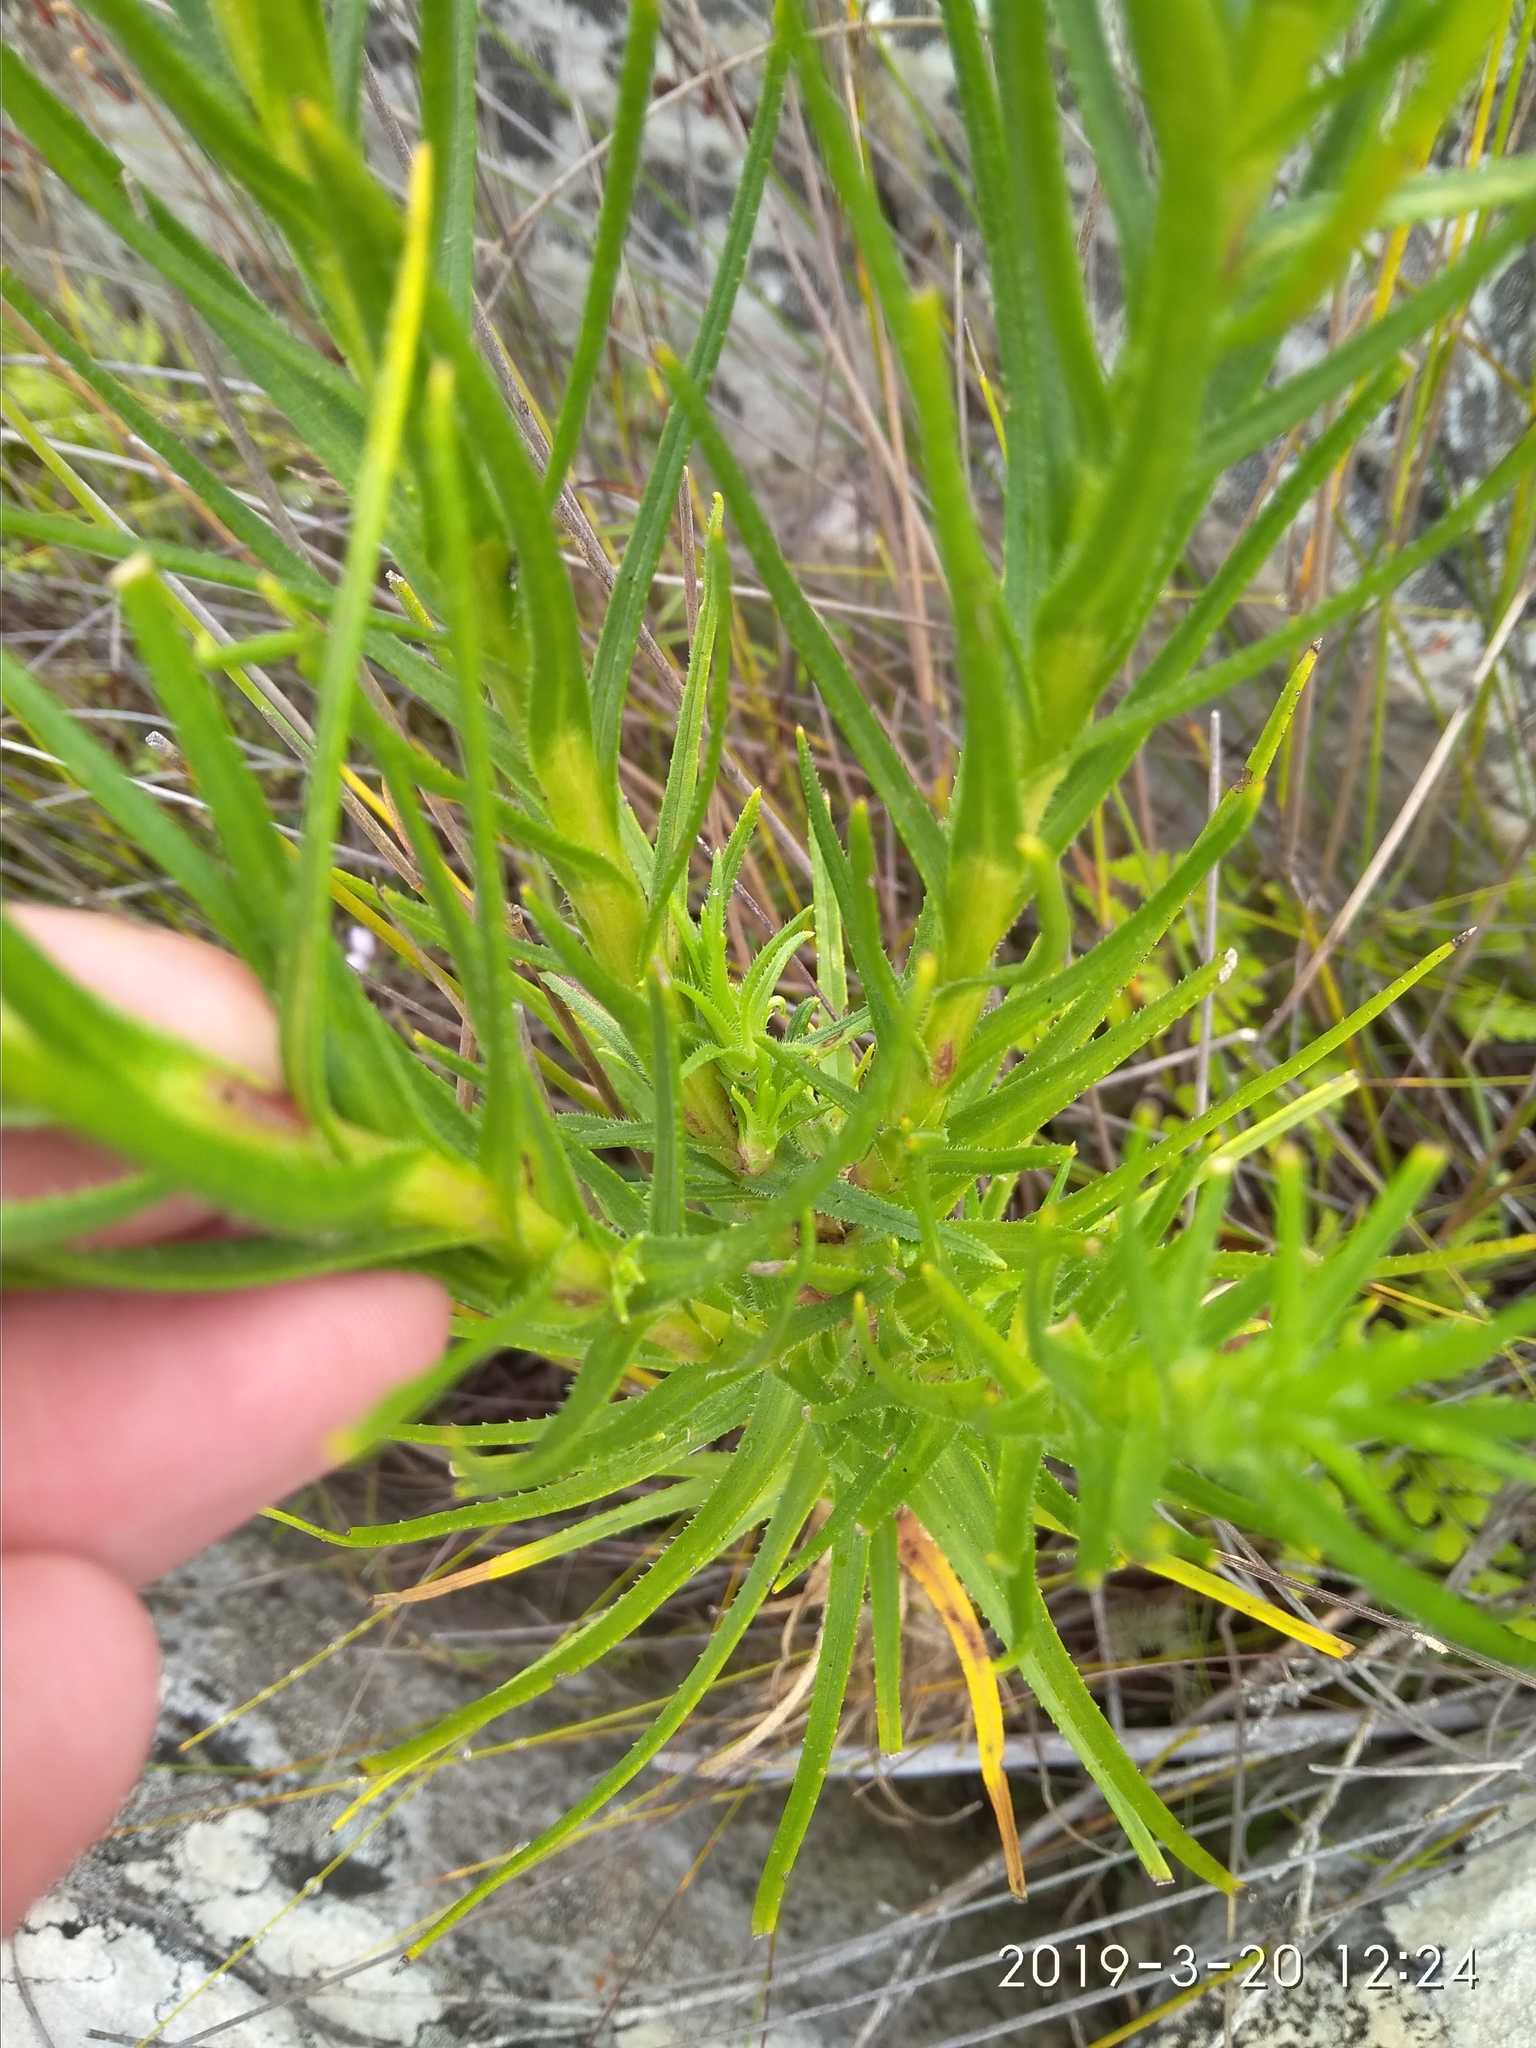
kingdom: Plantae
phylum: Tracheophyta
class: Magnoliopsida
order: Asterales
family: Asteraceae
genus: Zyrphelis
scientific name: Zyrphelis nervosa
